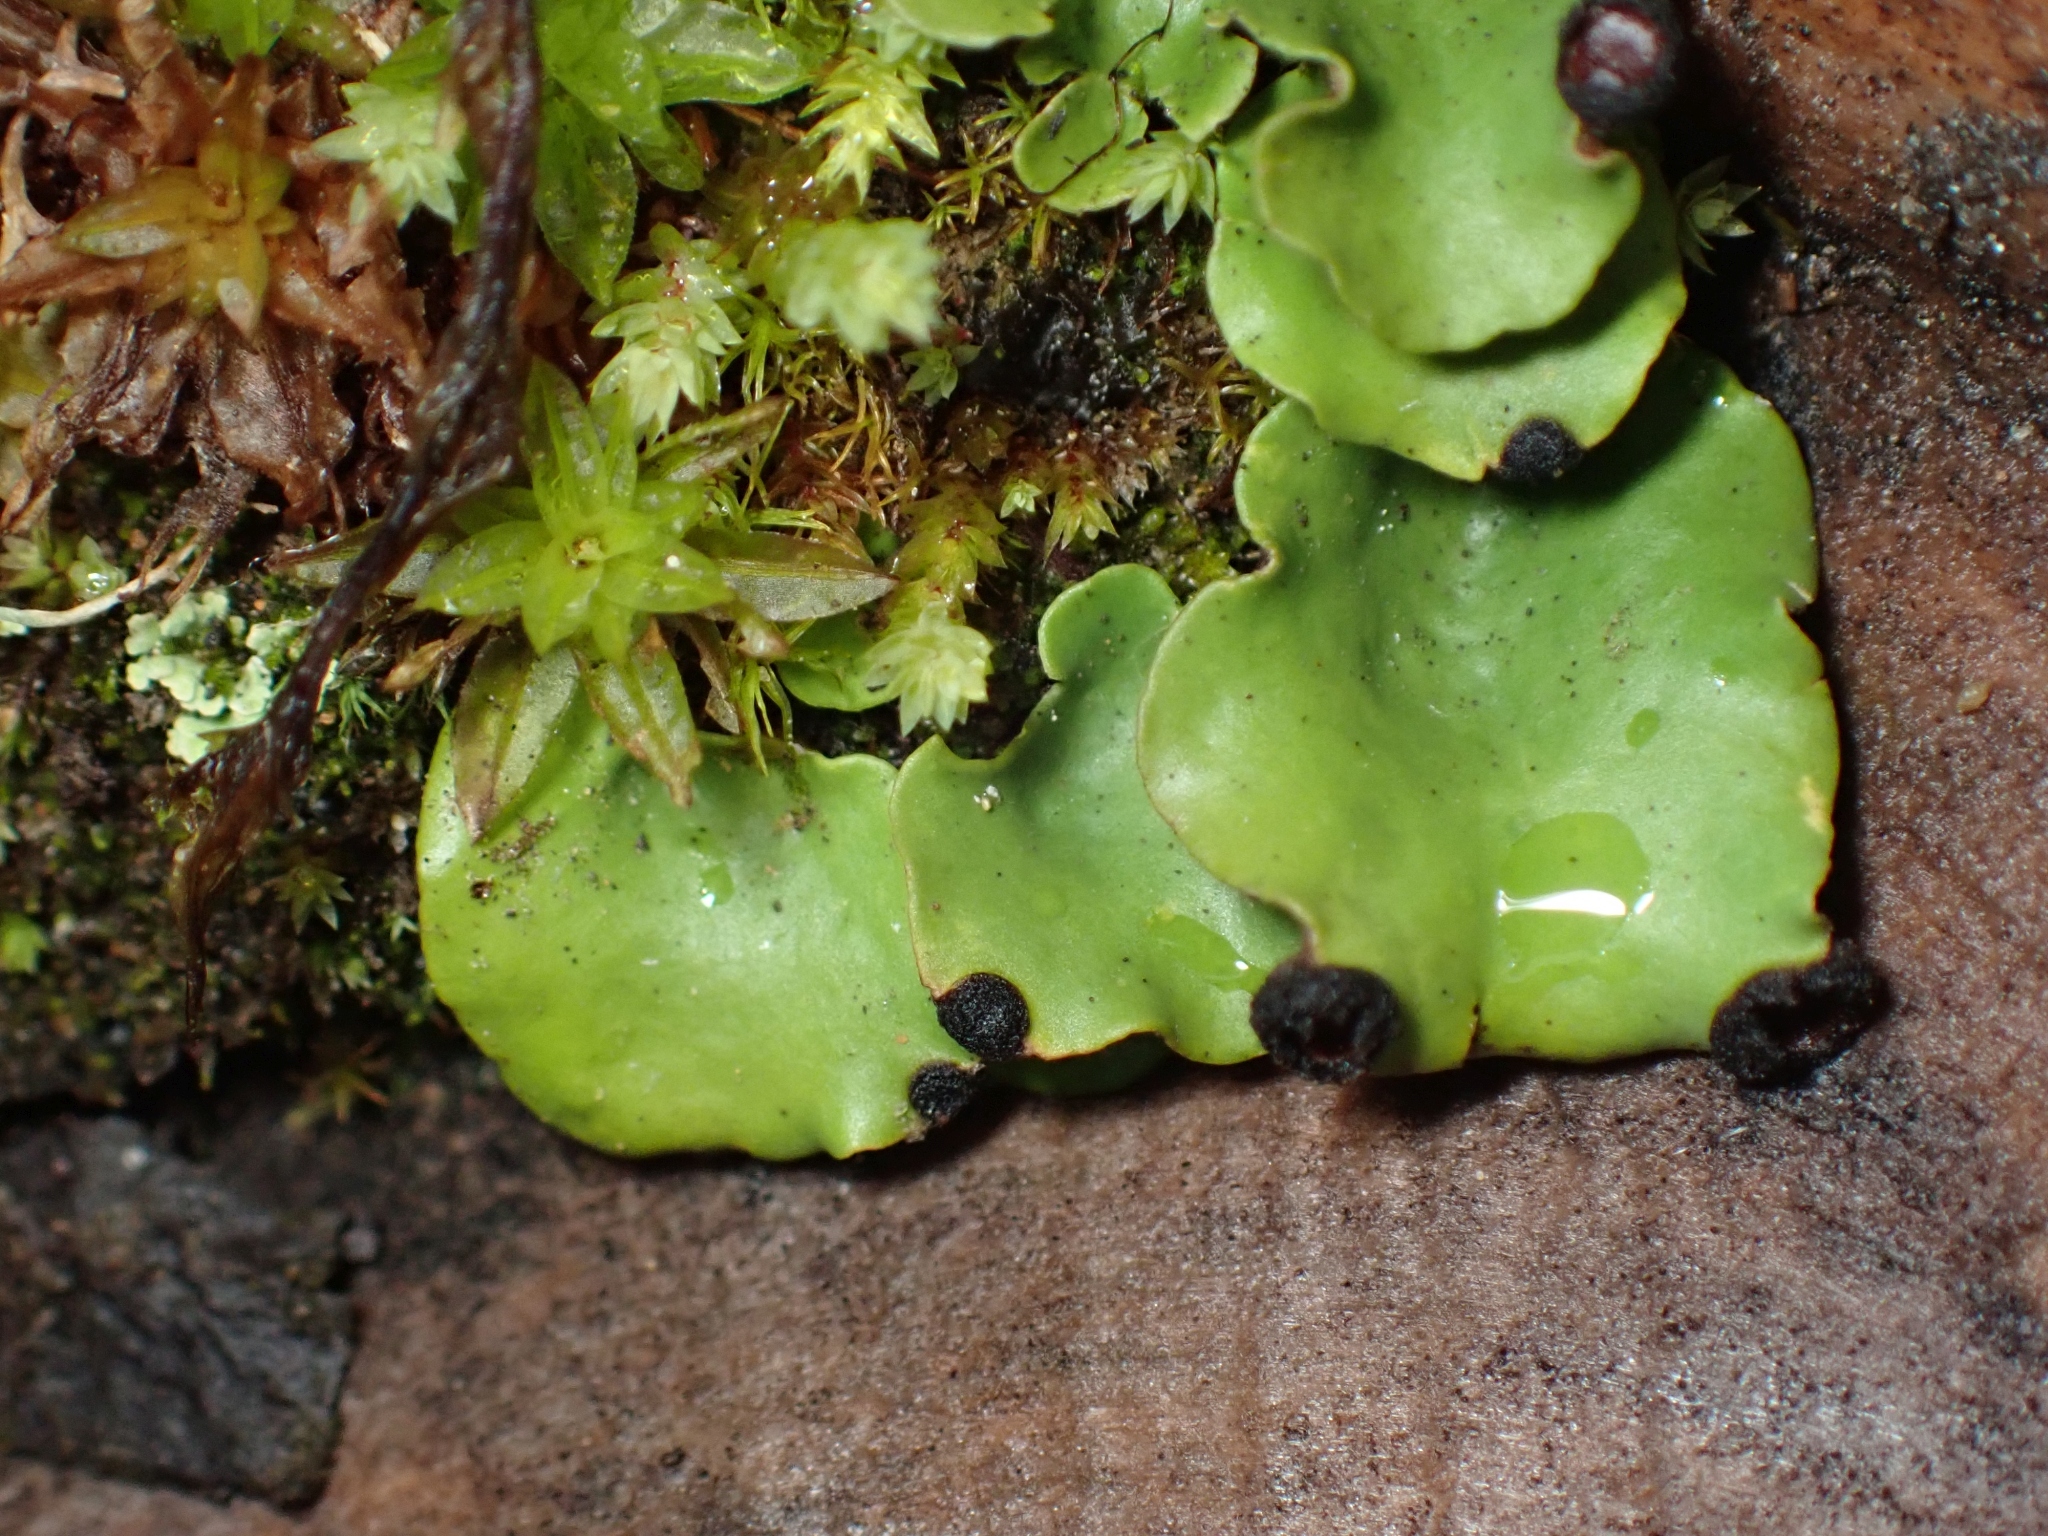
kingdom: Fungi
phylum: Ascomycota
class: Lecanoromycetes
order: Peltigerales
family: Peltigeraceae
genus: Peltigera
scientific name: Peltigera venosa
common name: Pixie gowns lichen
